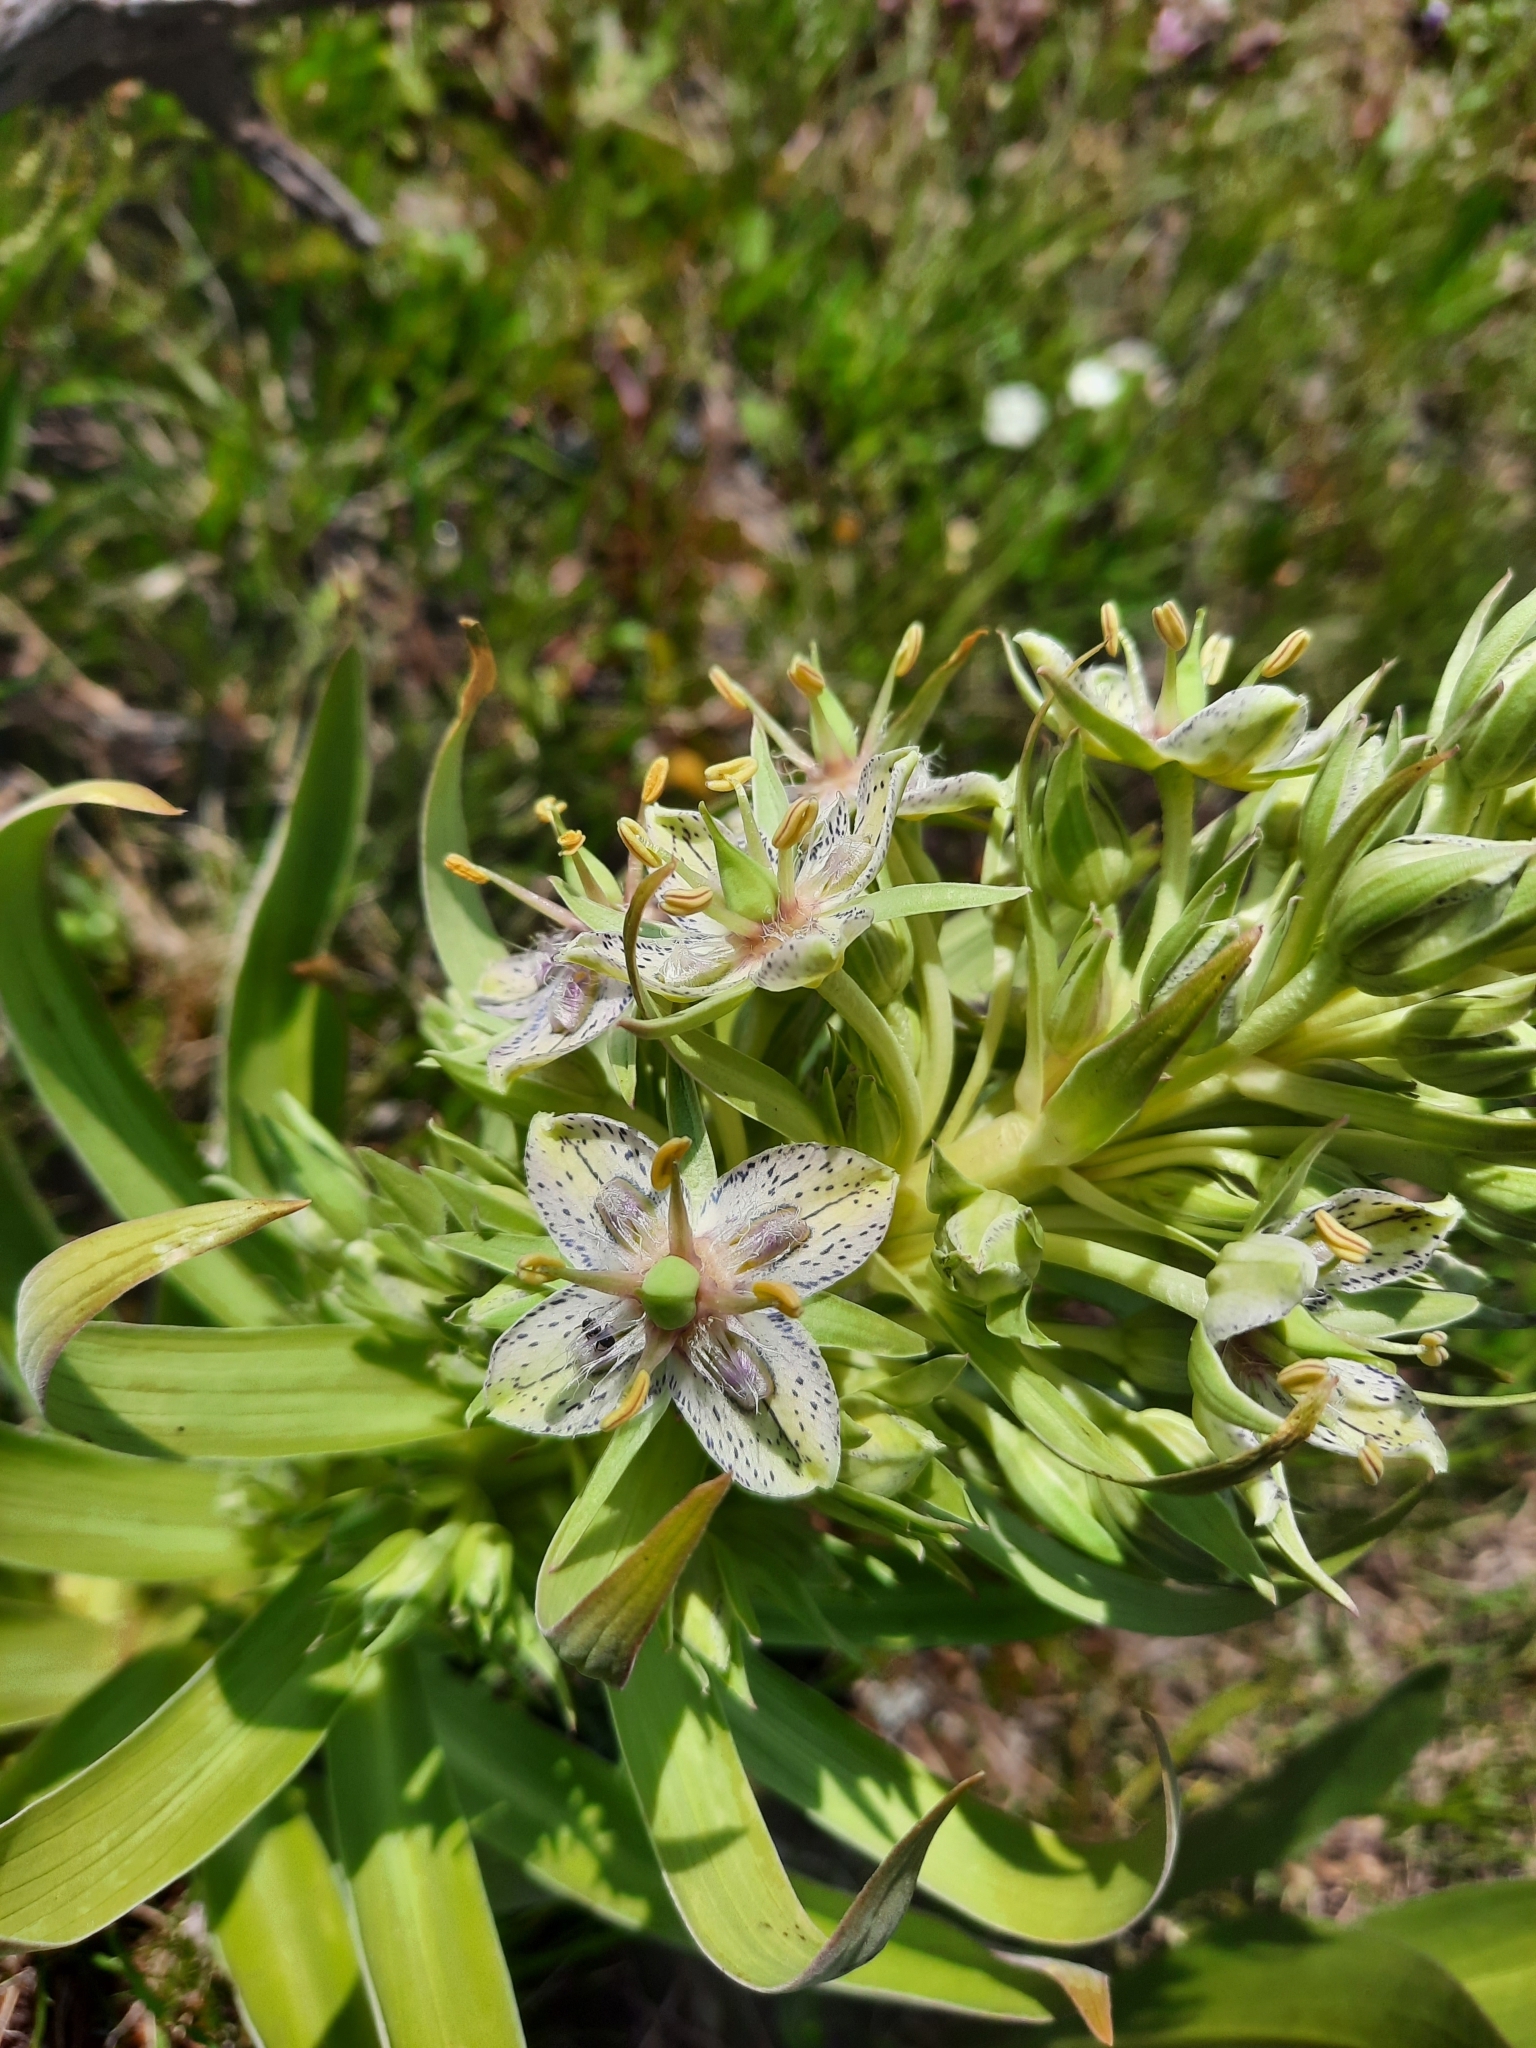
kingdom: Plantae
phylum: Tracheophyta
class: Magnoliopsida
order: Gentianales
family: Gentianaceae
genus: Frasera
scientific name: Frasera speciosa
